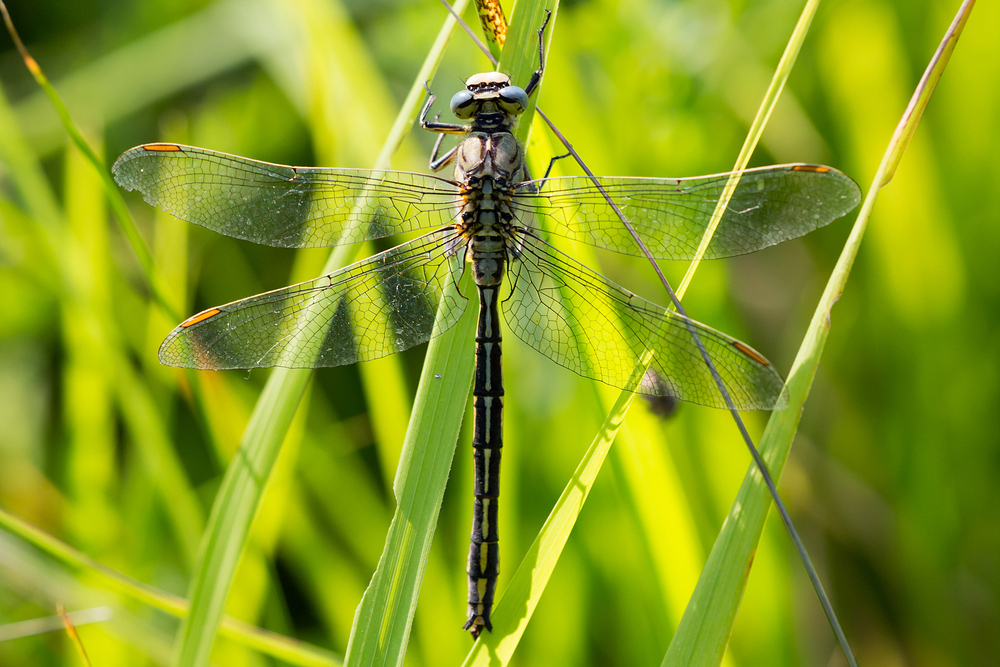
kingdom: Animalia
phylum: Arthropoda
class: Insecta
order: Odonata
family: Gomphidae
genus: Gomphus
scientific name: Gomphus pulchellus
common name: Western clubtail
